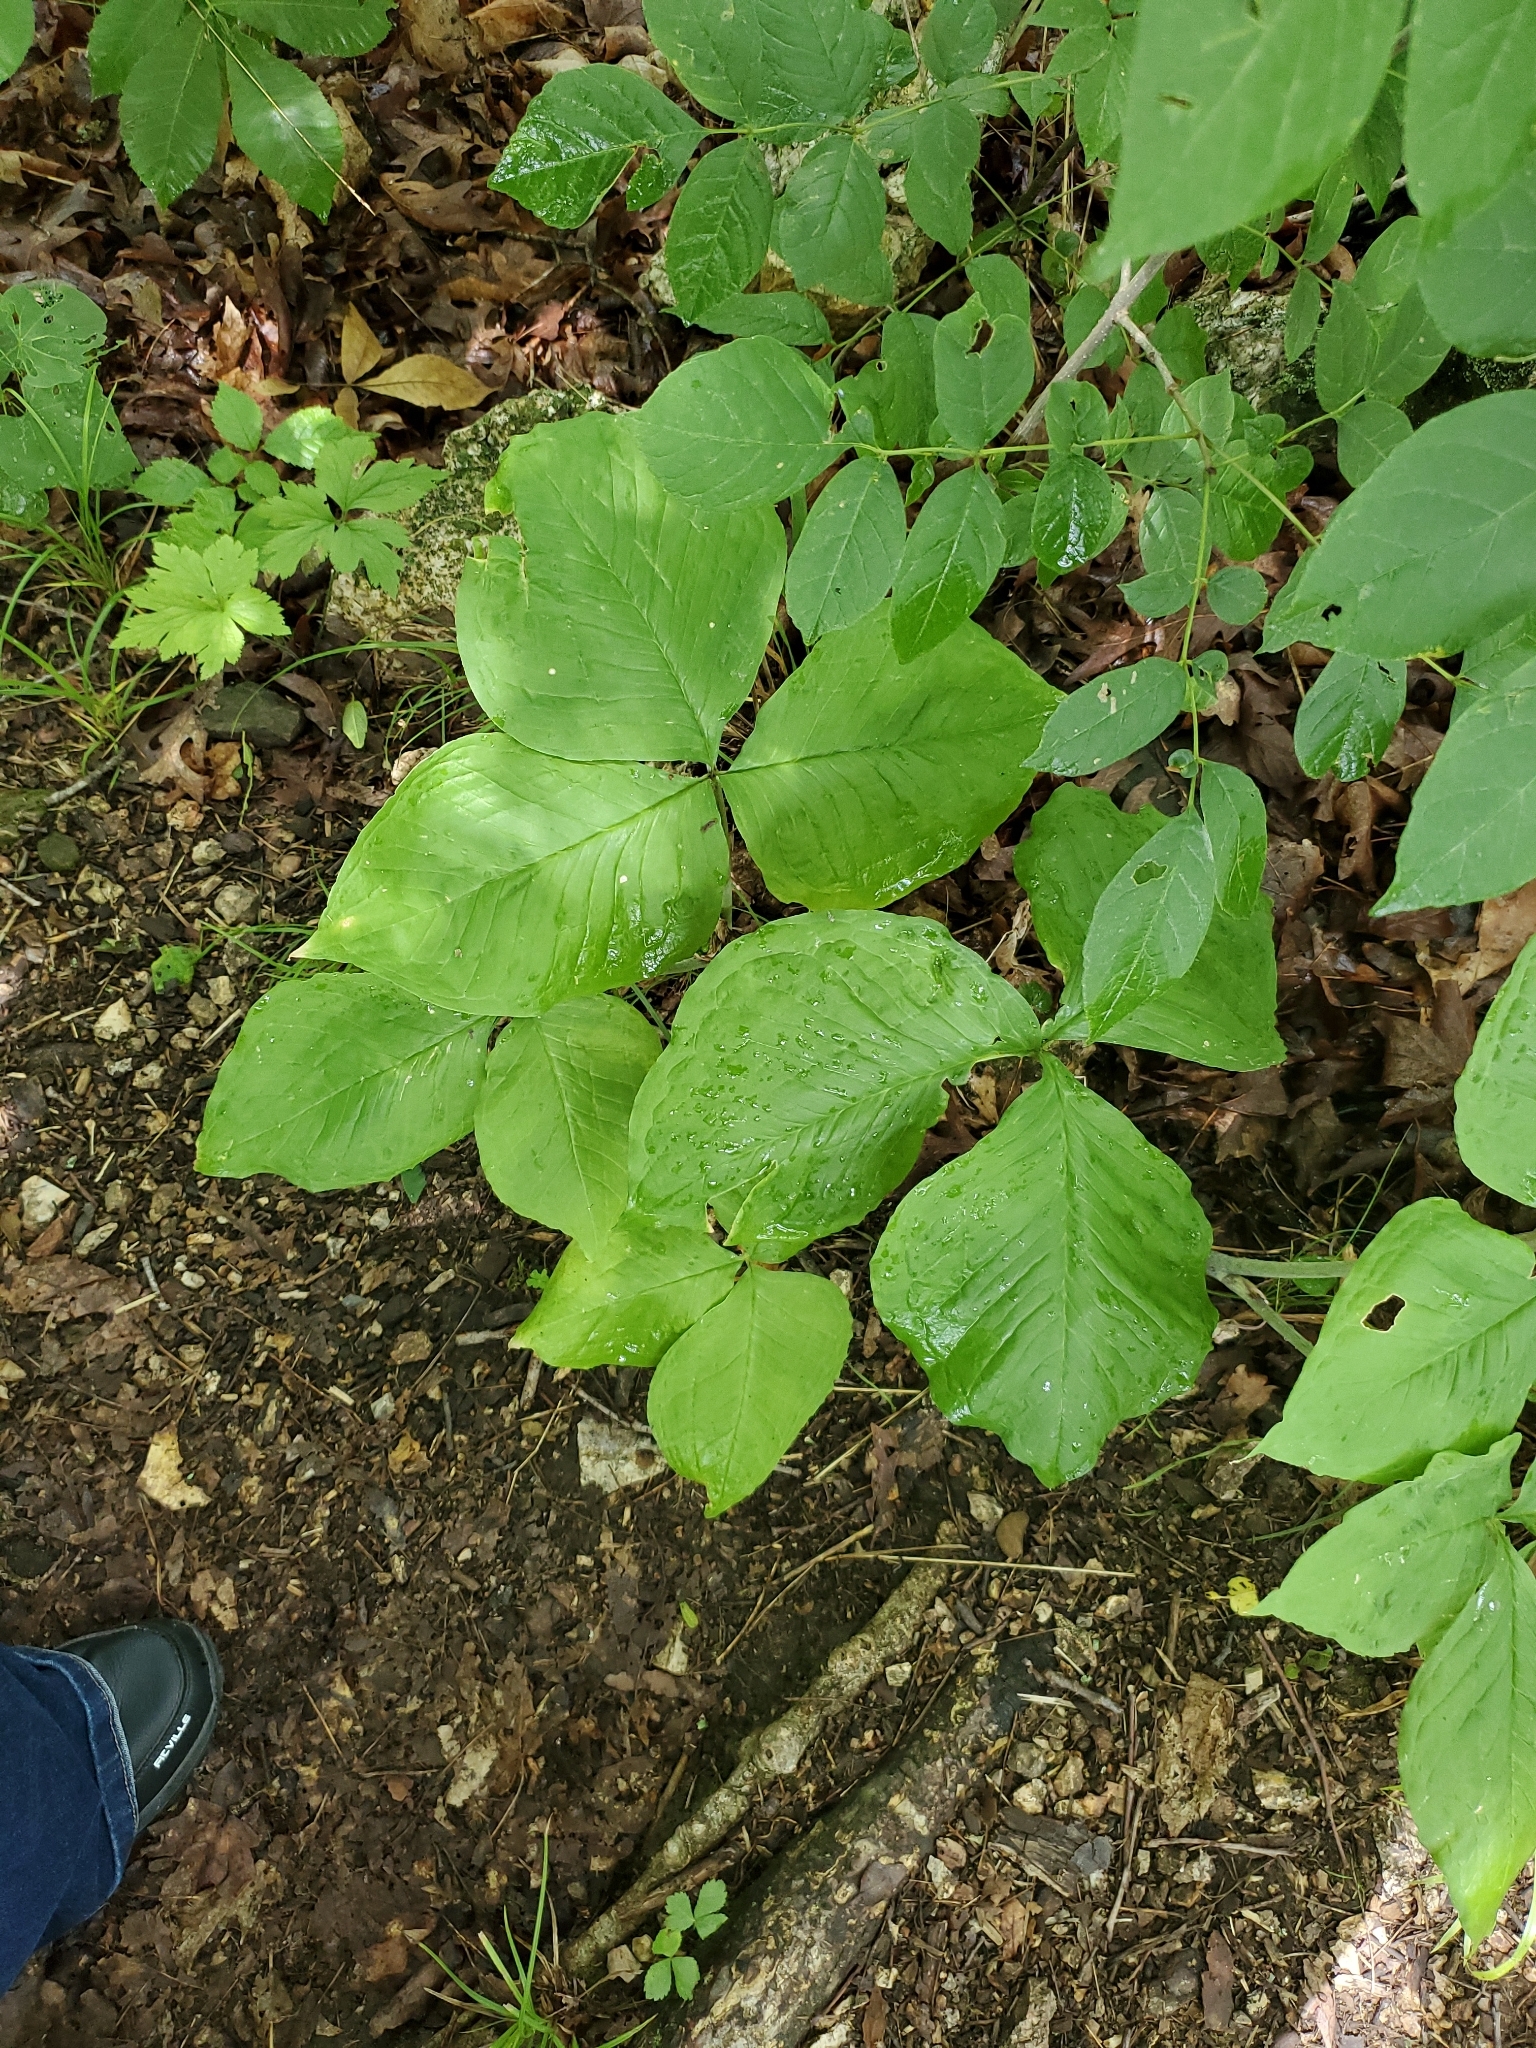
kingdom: Plantae
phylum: Tracheophyta
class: Liliopsida
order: Alismatales
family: Araceae
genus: Arisaema
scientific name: Arisaema triphyllum
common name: Jack-in-the-pulpit
